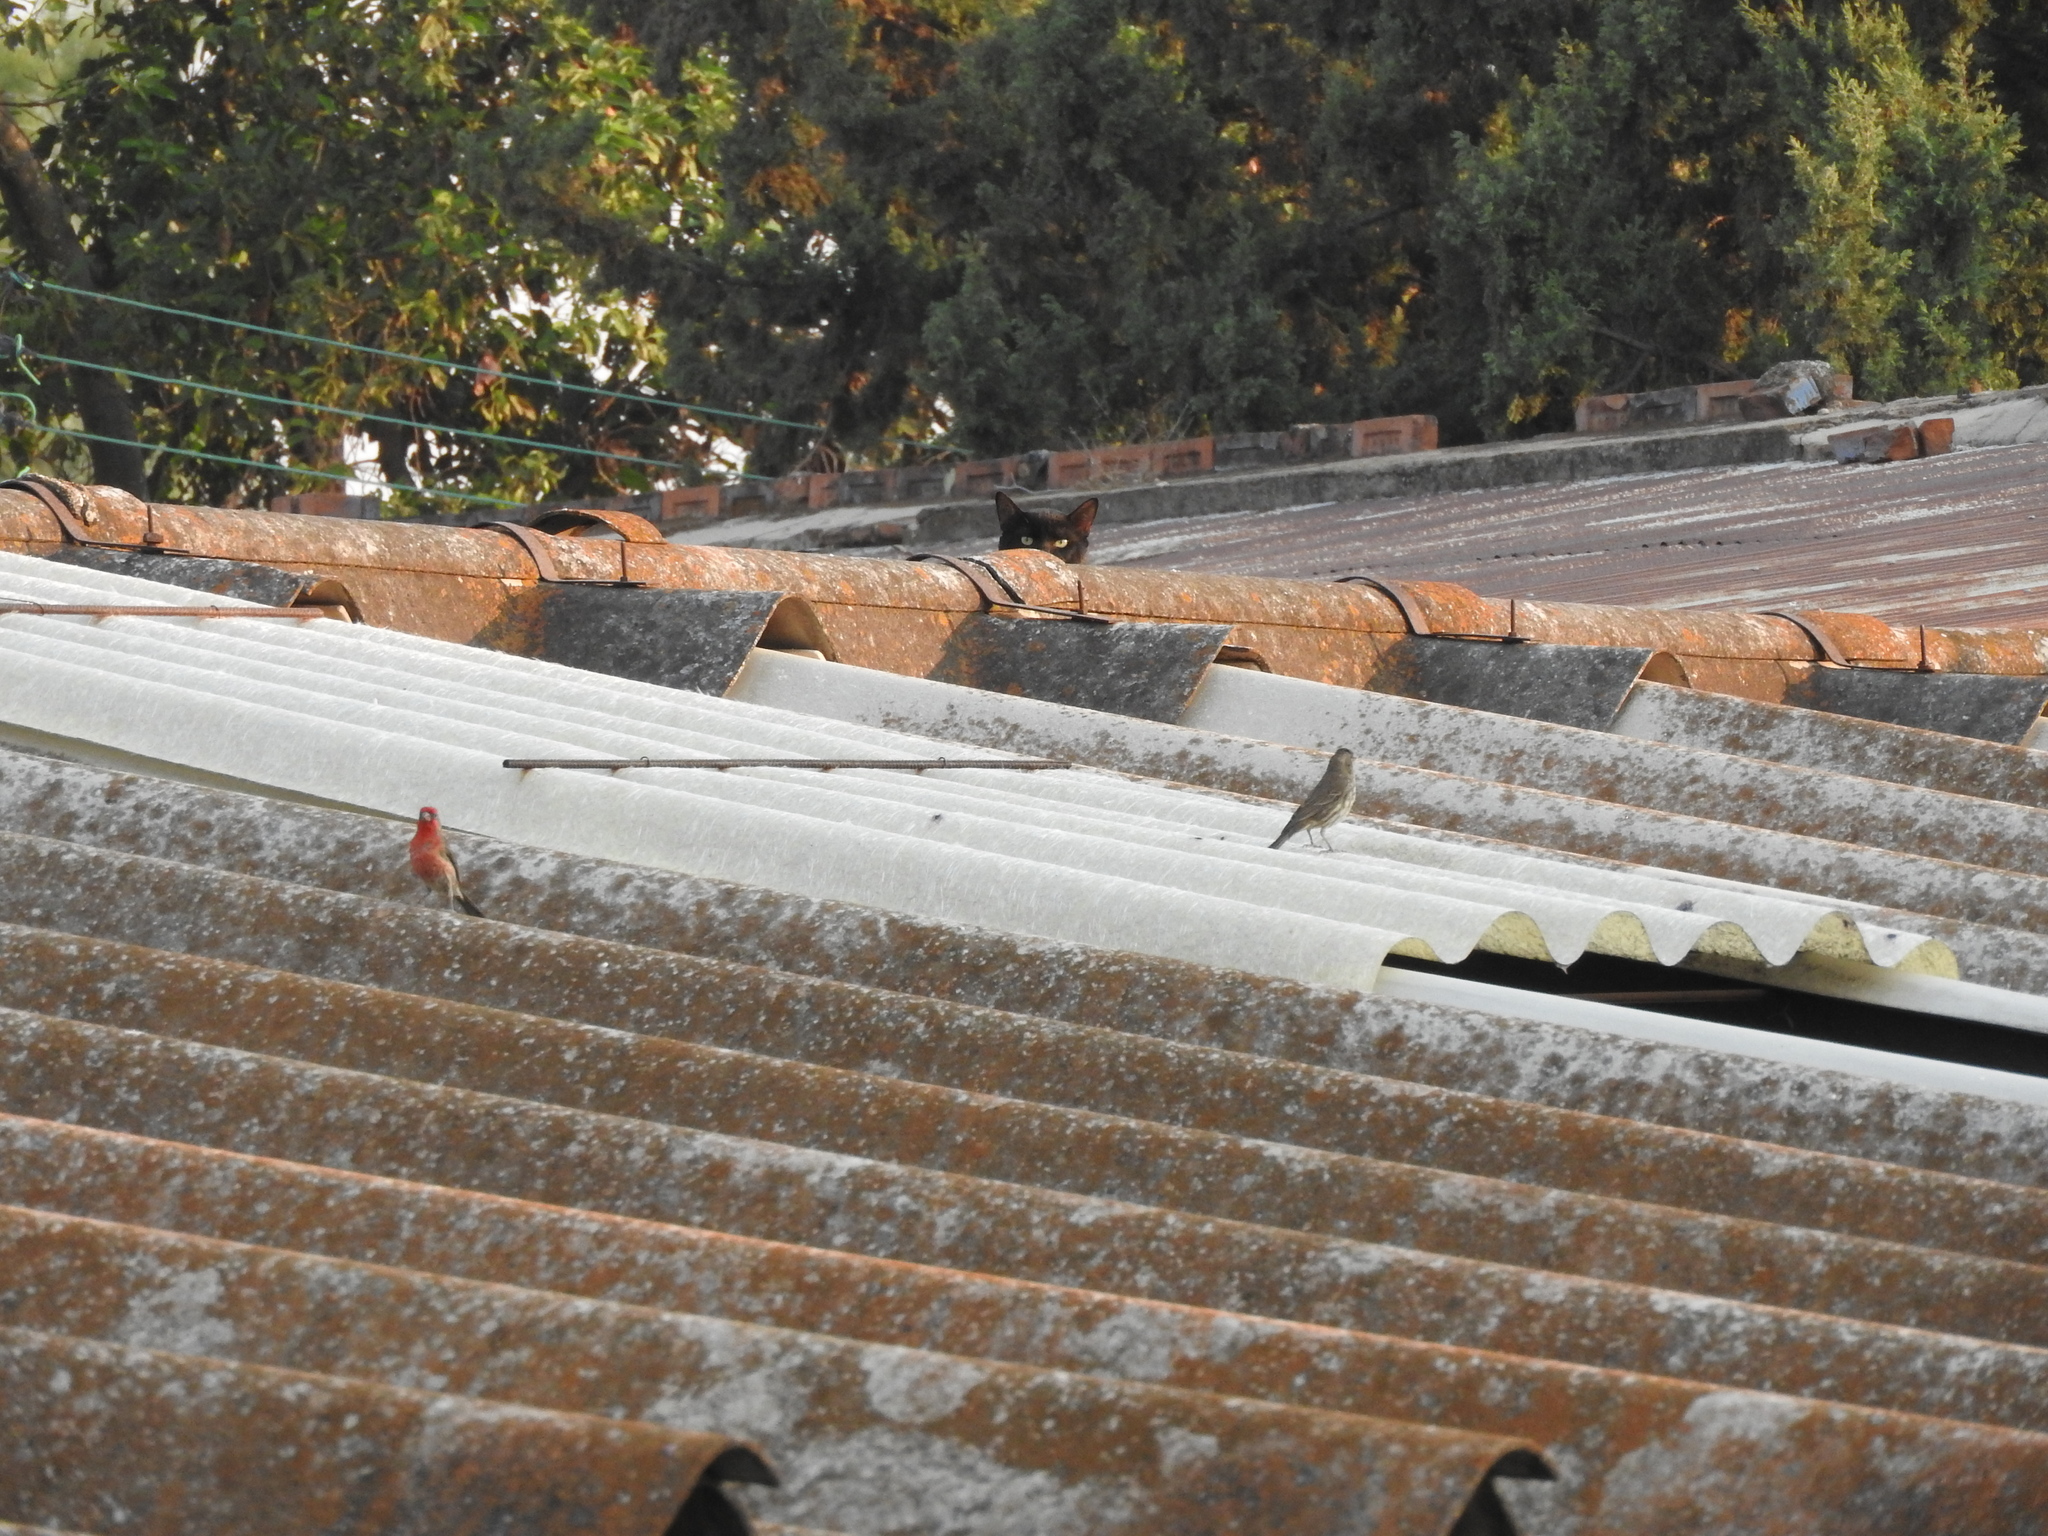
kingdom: Animalia
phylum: Chordata
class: Aves
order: Passeriformes
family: Fringillidae
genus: Haemorhous
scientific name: Haemorhous mexicanus
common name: House finch
